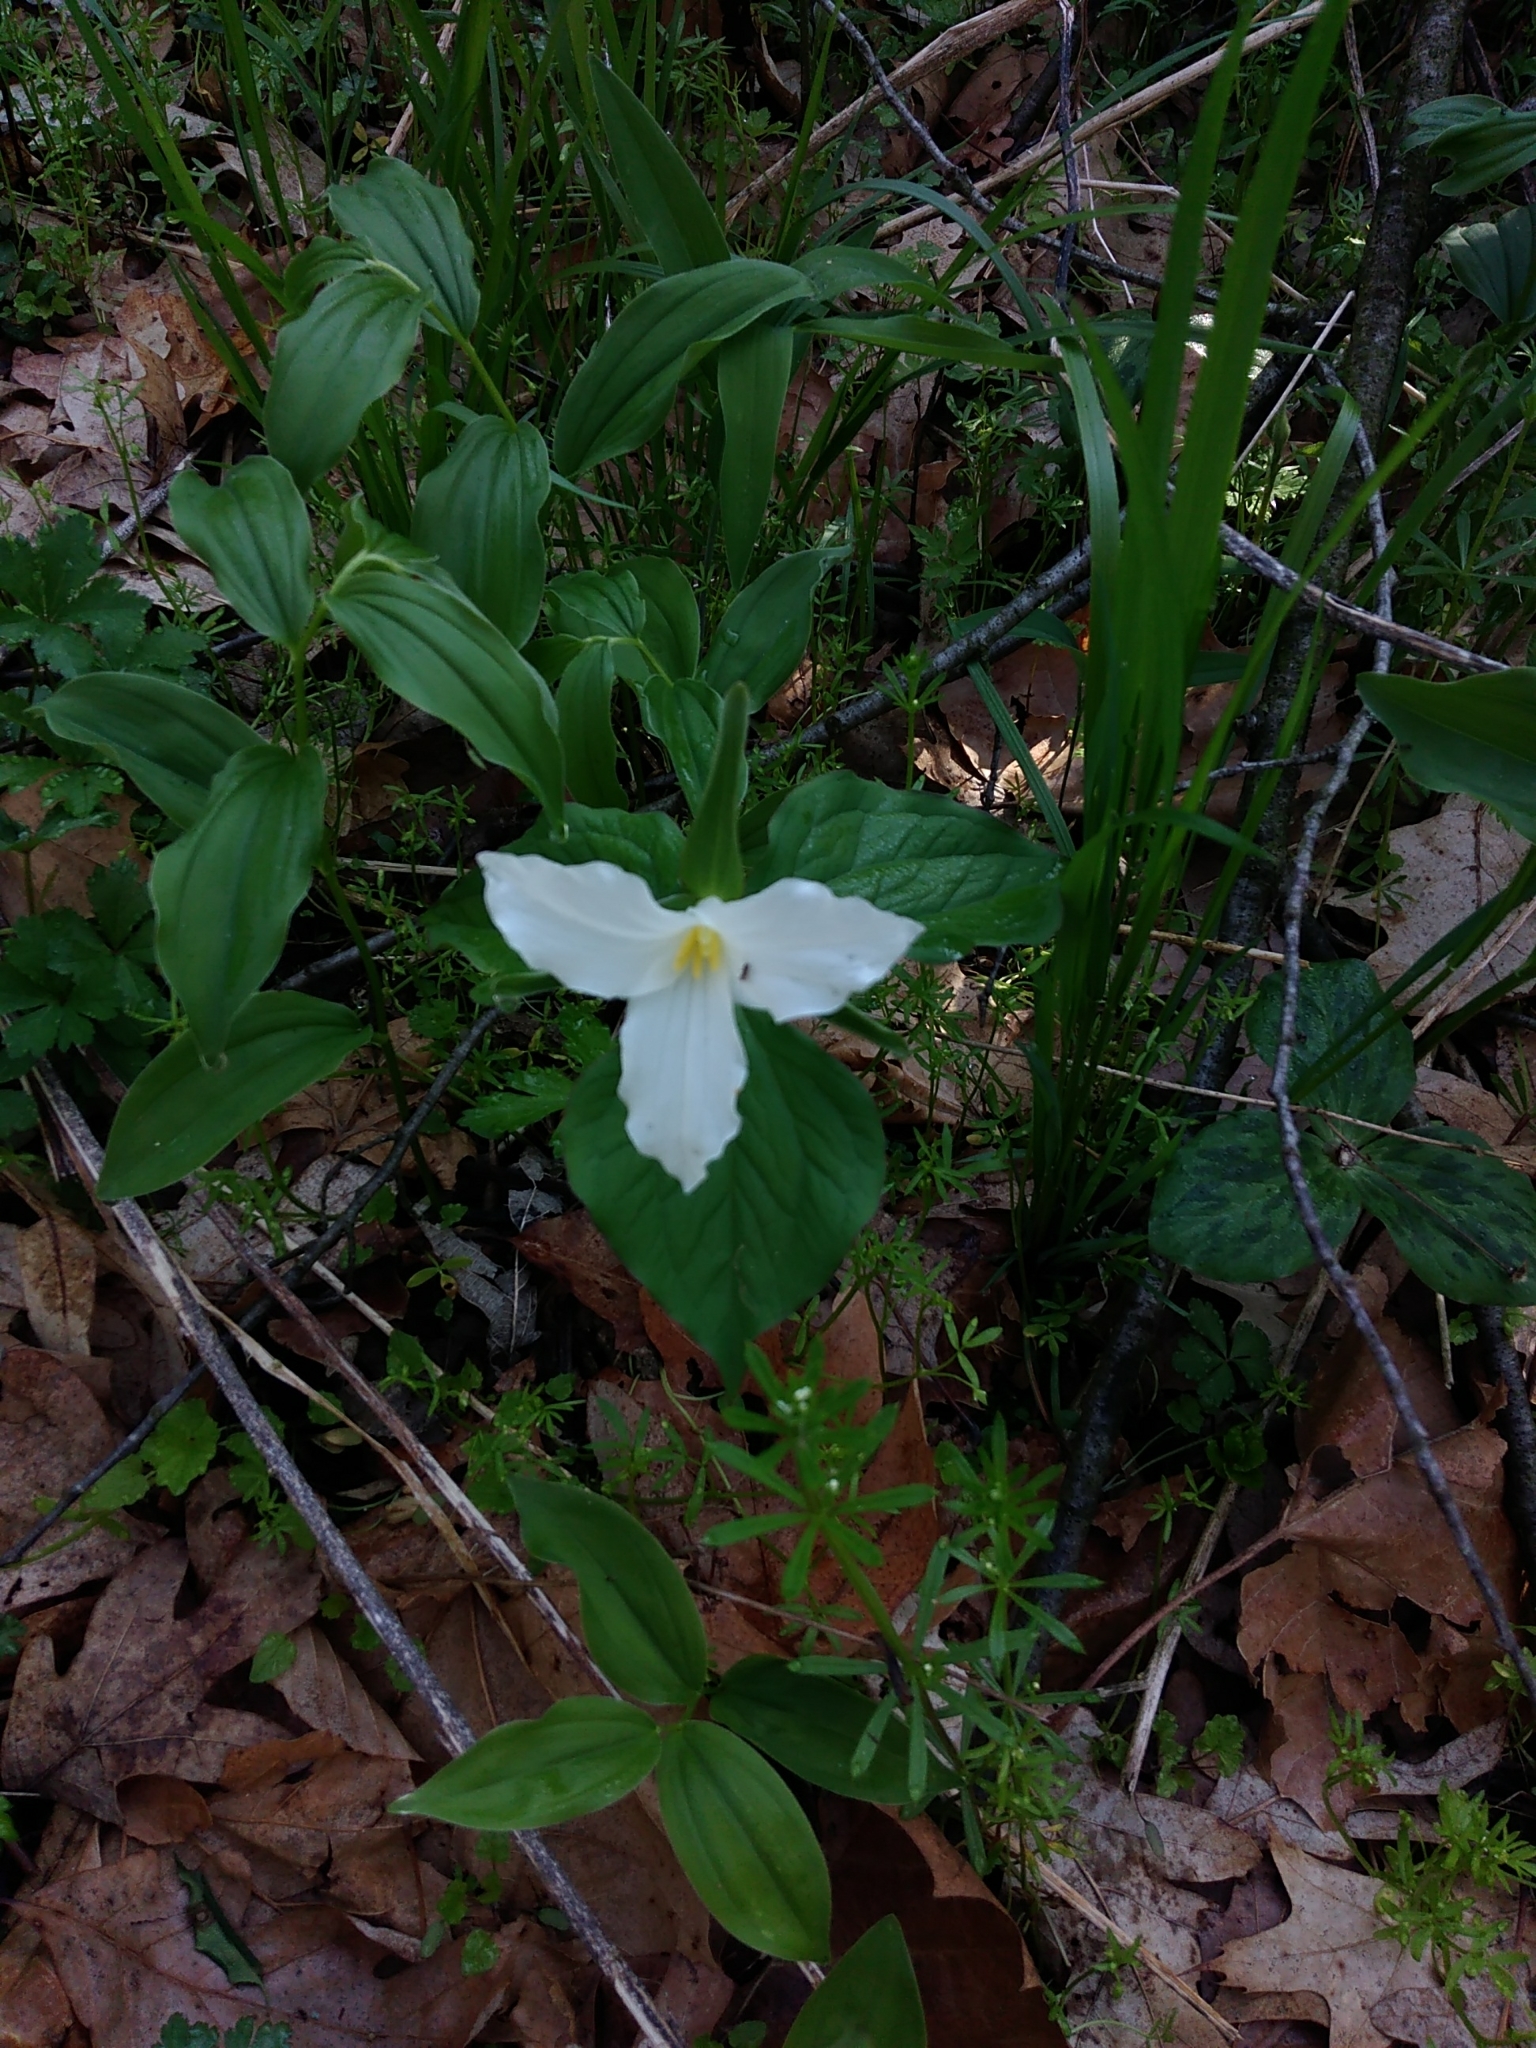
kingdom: Plantae
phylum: Tracheophyta
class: Liliopsida
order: Liliales
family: Melanthiaceae
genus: Trillium
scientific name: Trillium grandiflorum
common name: Great white trillium
